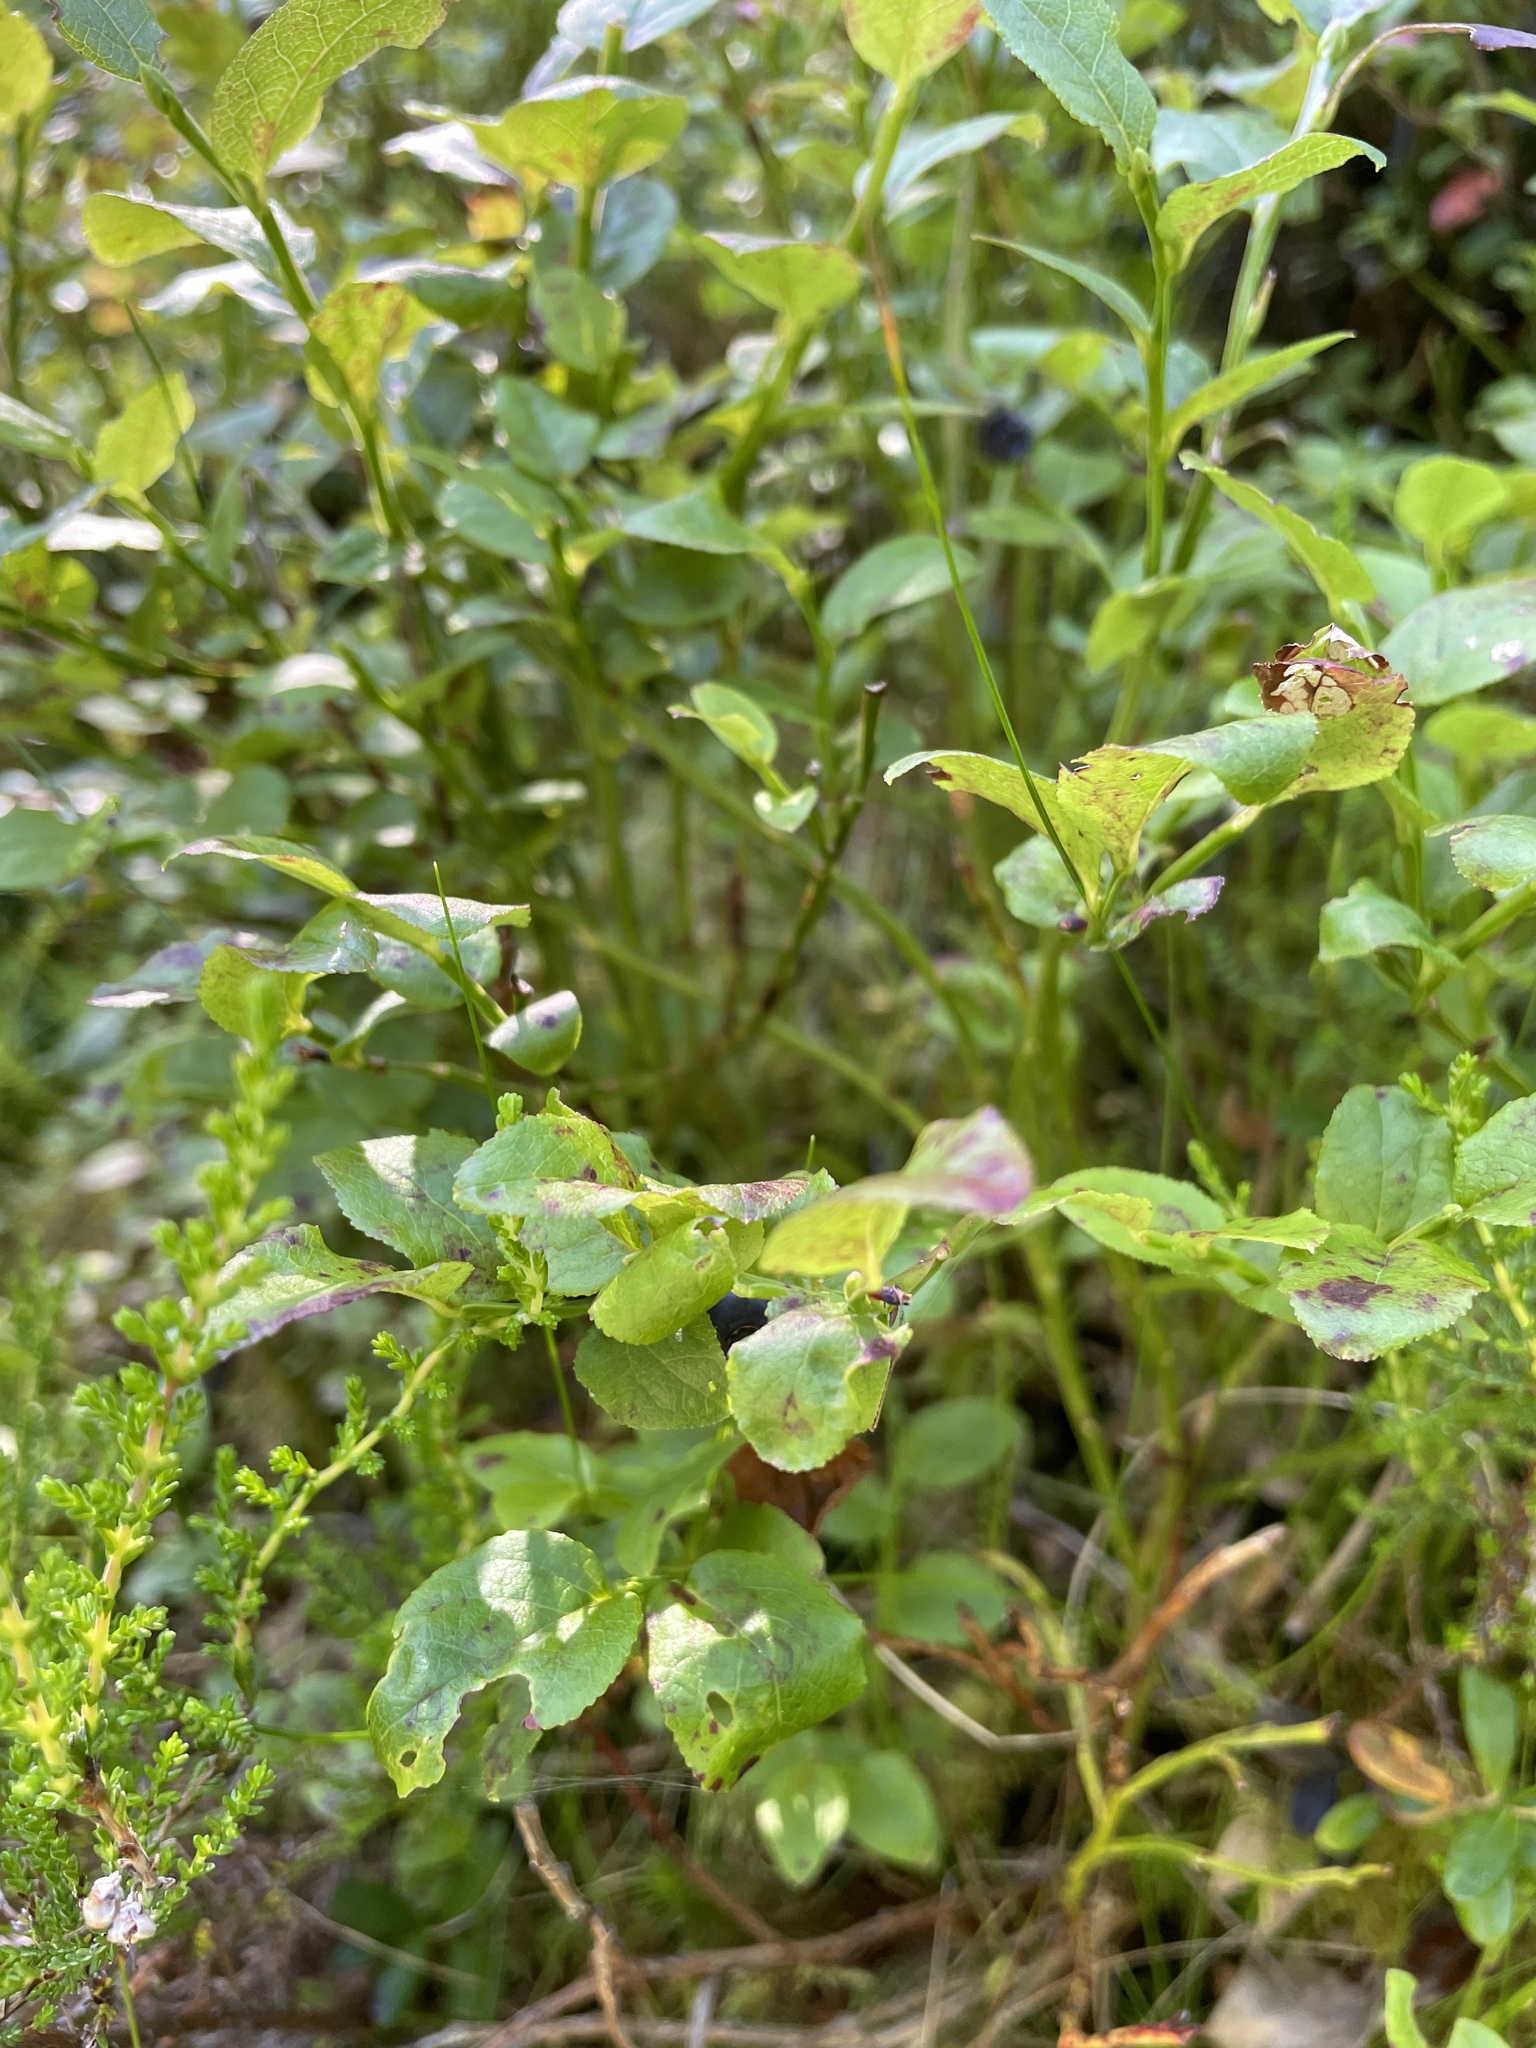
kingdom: Plantae
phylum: Tracheophyta
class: Magnoliopsida
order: Ericales
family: Ericaceae
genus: Vaccinium
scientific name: Vaccinium myrtillus
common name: Bilberry
